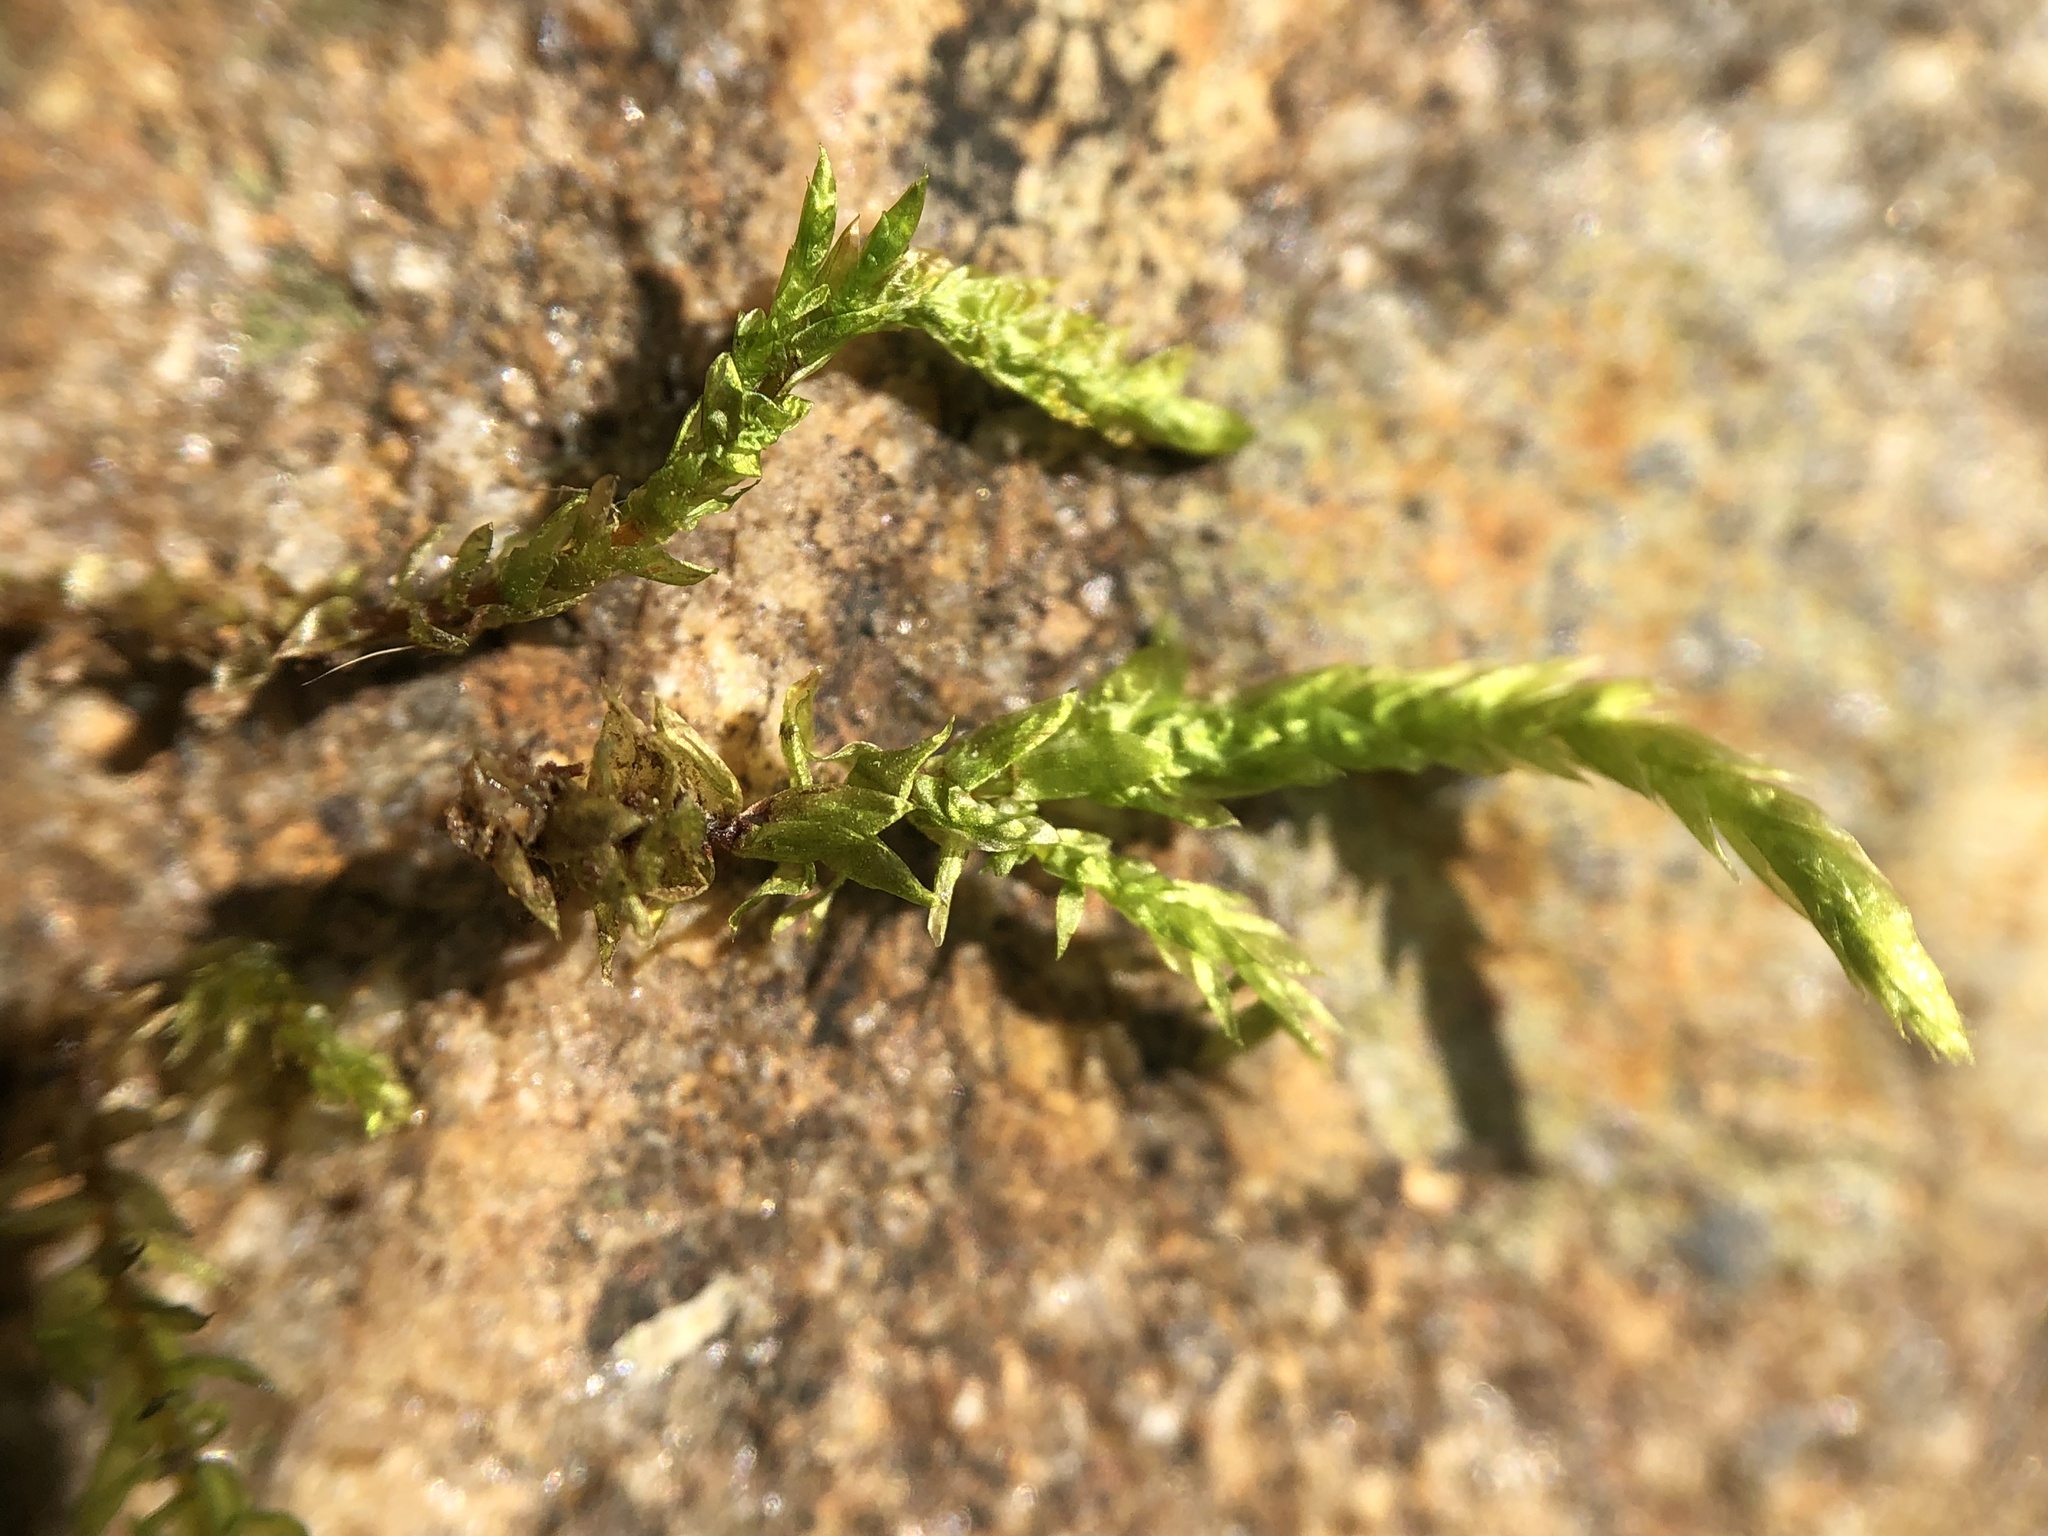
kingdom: Plantae
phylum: Bryophyta
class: Bryopsida
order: Hypnales
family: Brachytheciaceae
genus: Brachythecium
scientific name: Brachythecium rivulare
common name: River ragged moss
